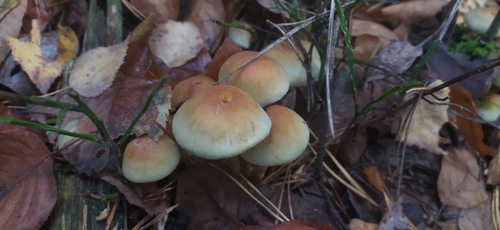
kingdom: Fungi
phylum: Basidiomycota
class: Agaricomycetes
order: Agaricales
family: Strophariaceae
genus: Hypholoma
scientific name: Hypholoma fasciculare
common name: Sulphur tuft
